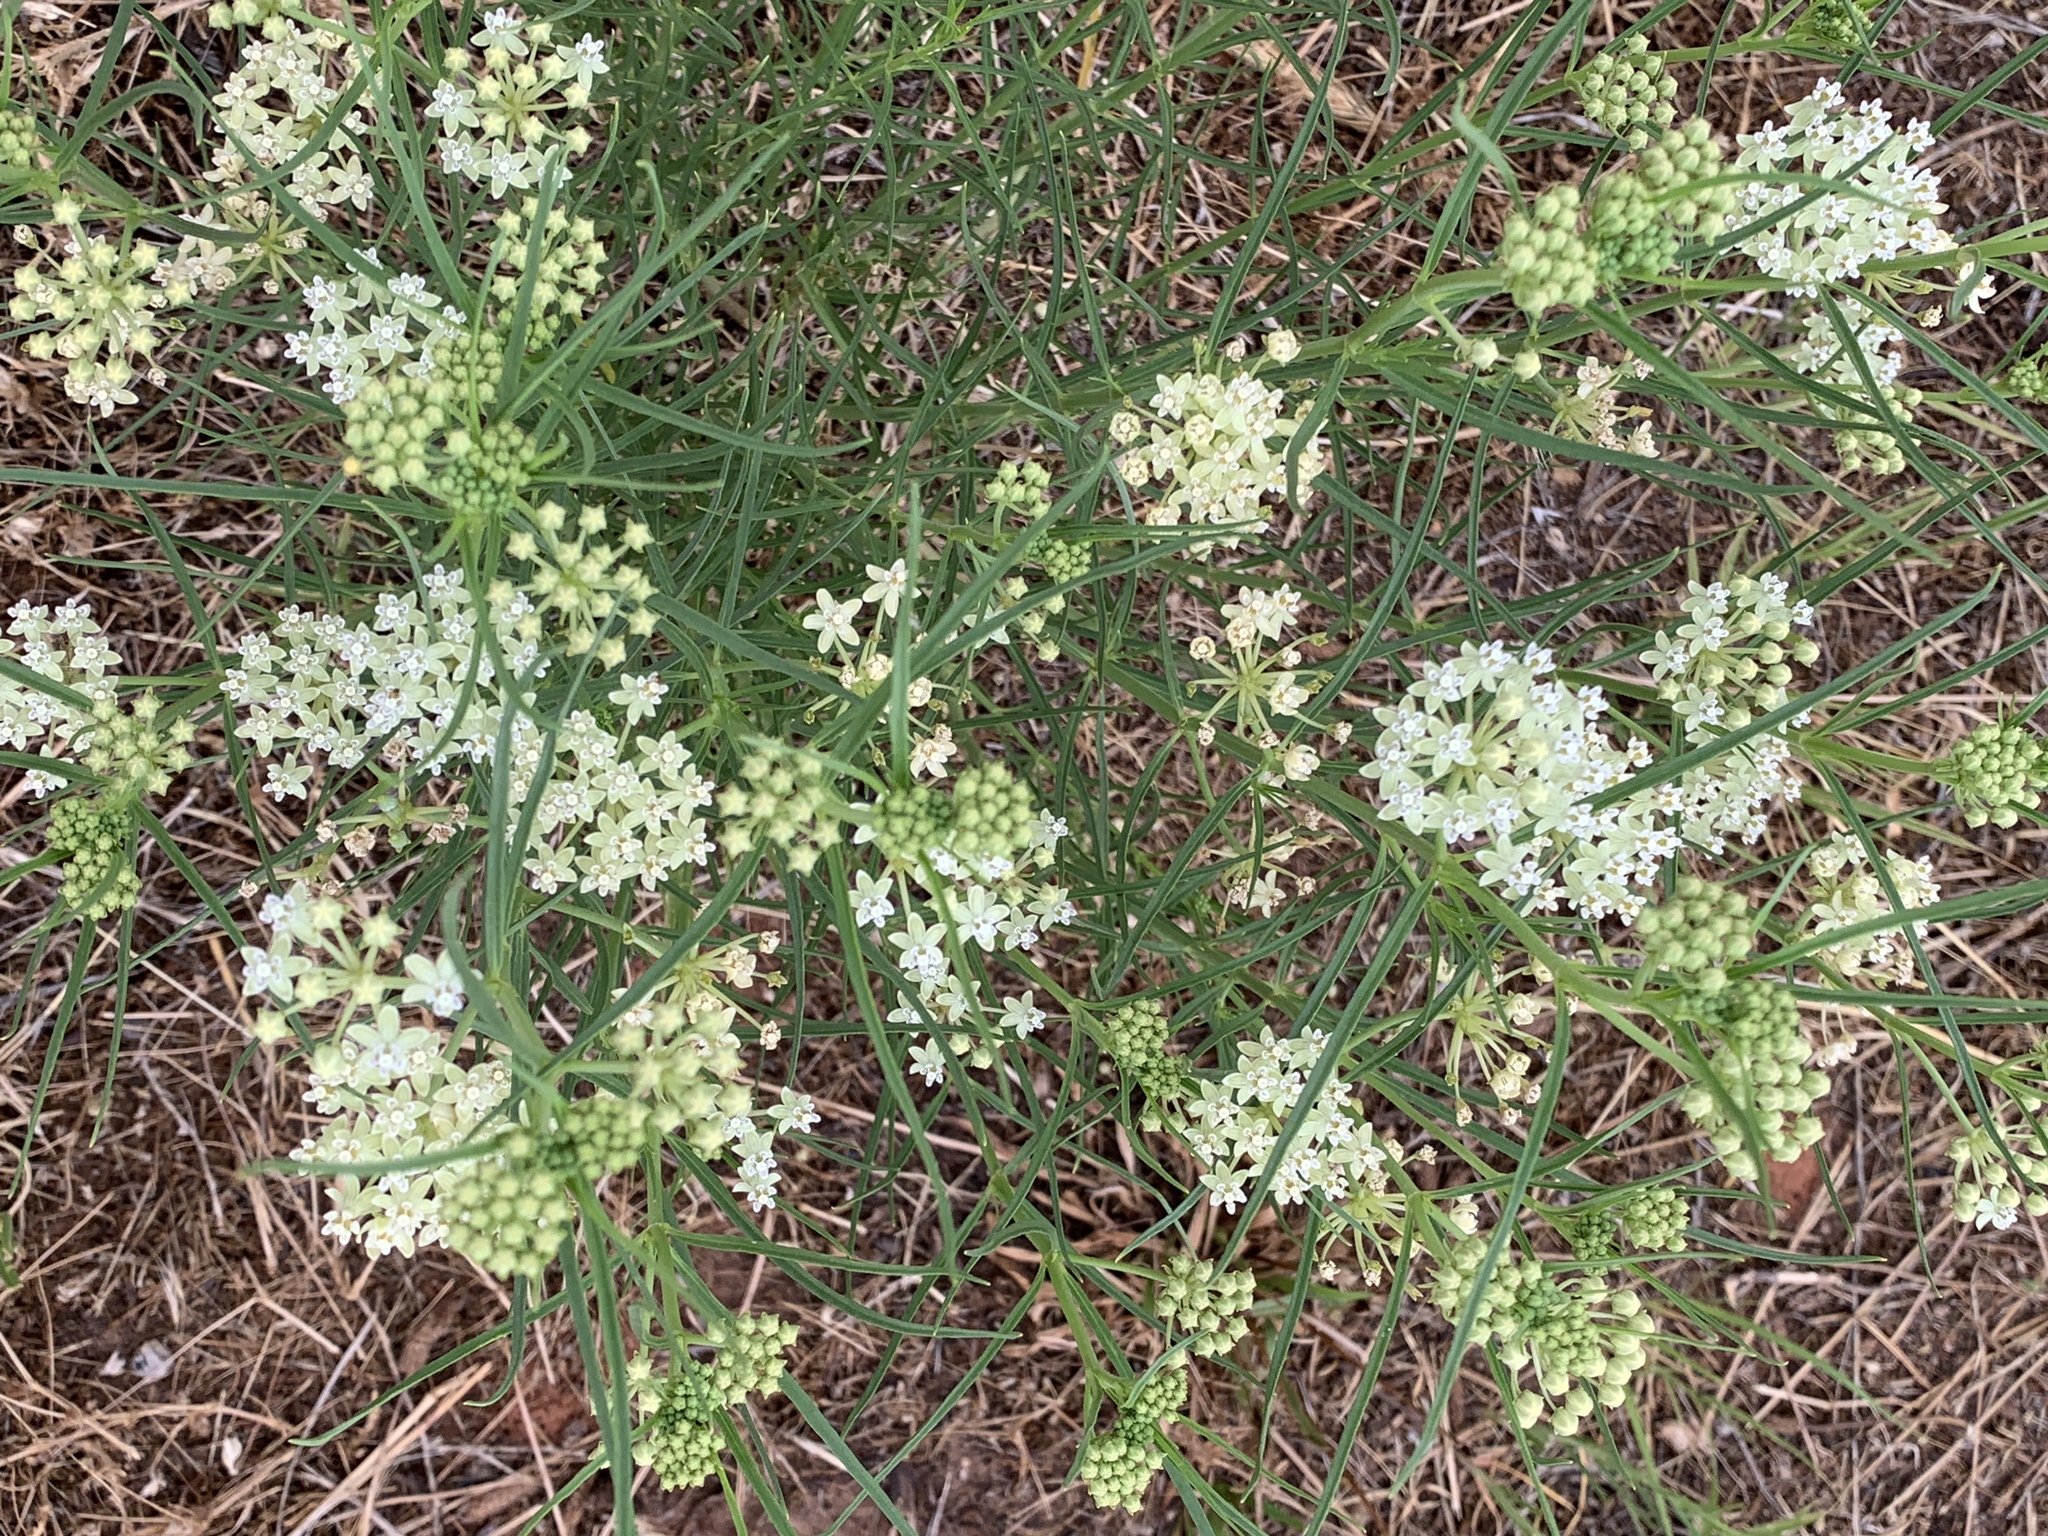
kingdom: Plantae
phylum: Tracheophyta
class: Magnoliopsida
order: Gentianales
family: Apocynaceae
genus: Asclepias
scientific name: Asclepias subverticillata
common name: Horsetail milkweed
